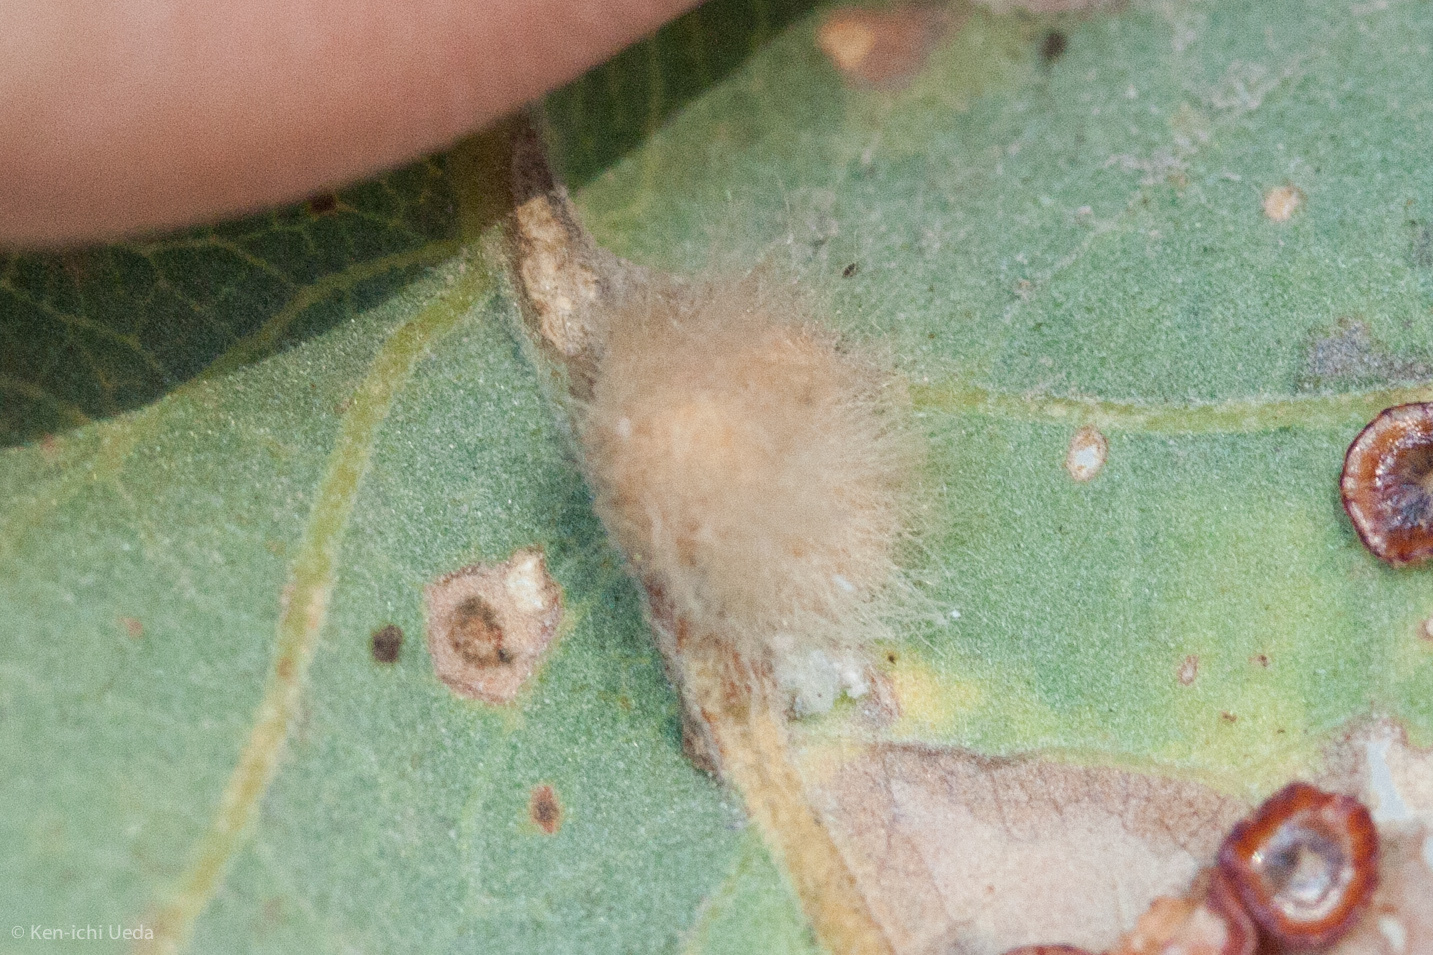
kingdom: Animalia
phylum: Arthropoda
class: Insecta
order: Hymenoptera
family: Cynipidae
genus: Andricus
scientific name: Andricus Druon fullawayi
